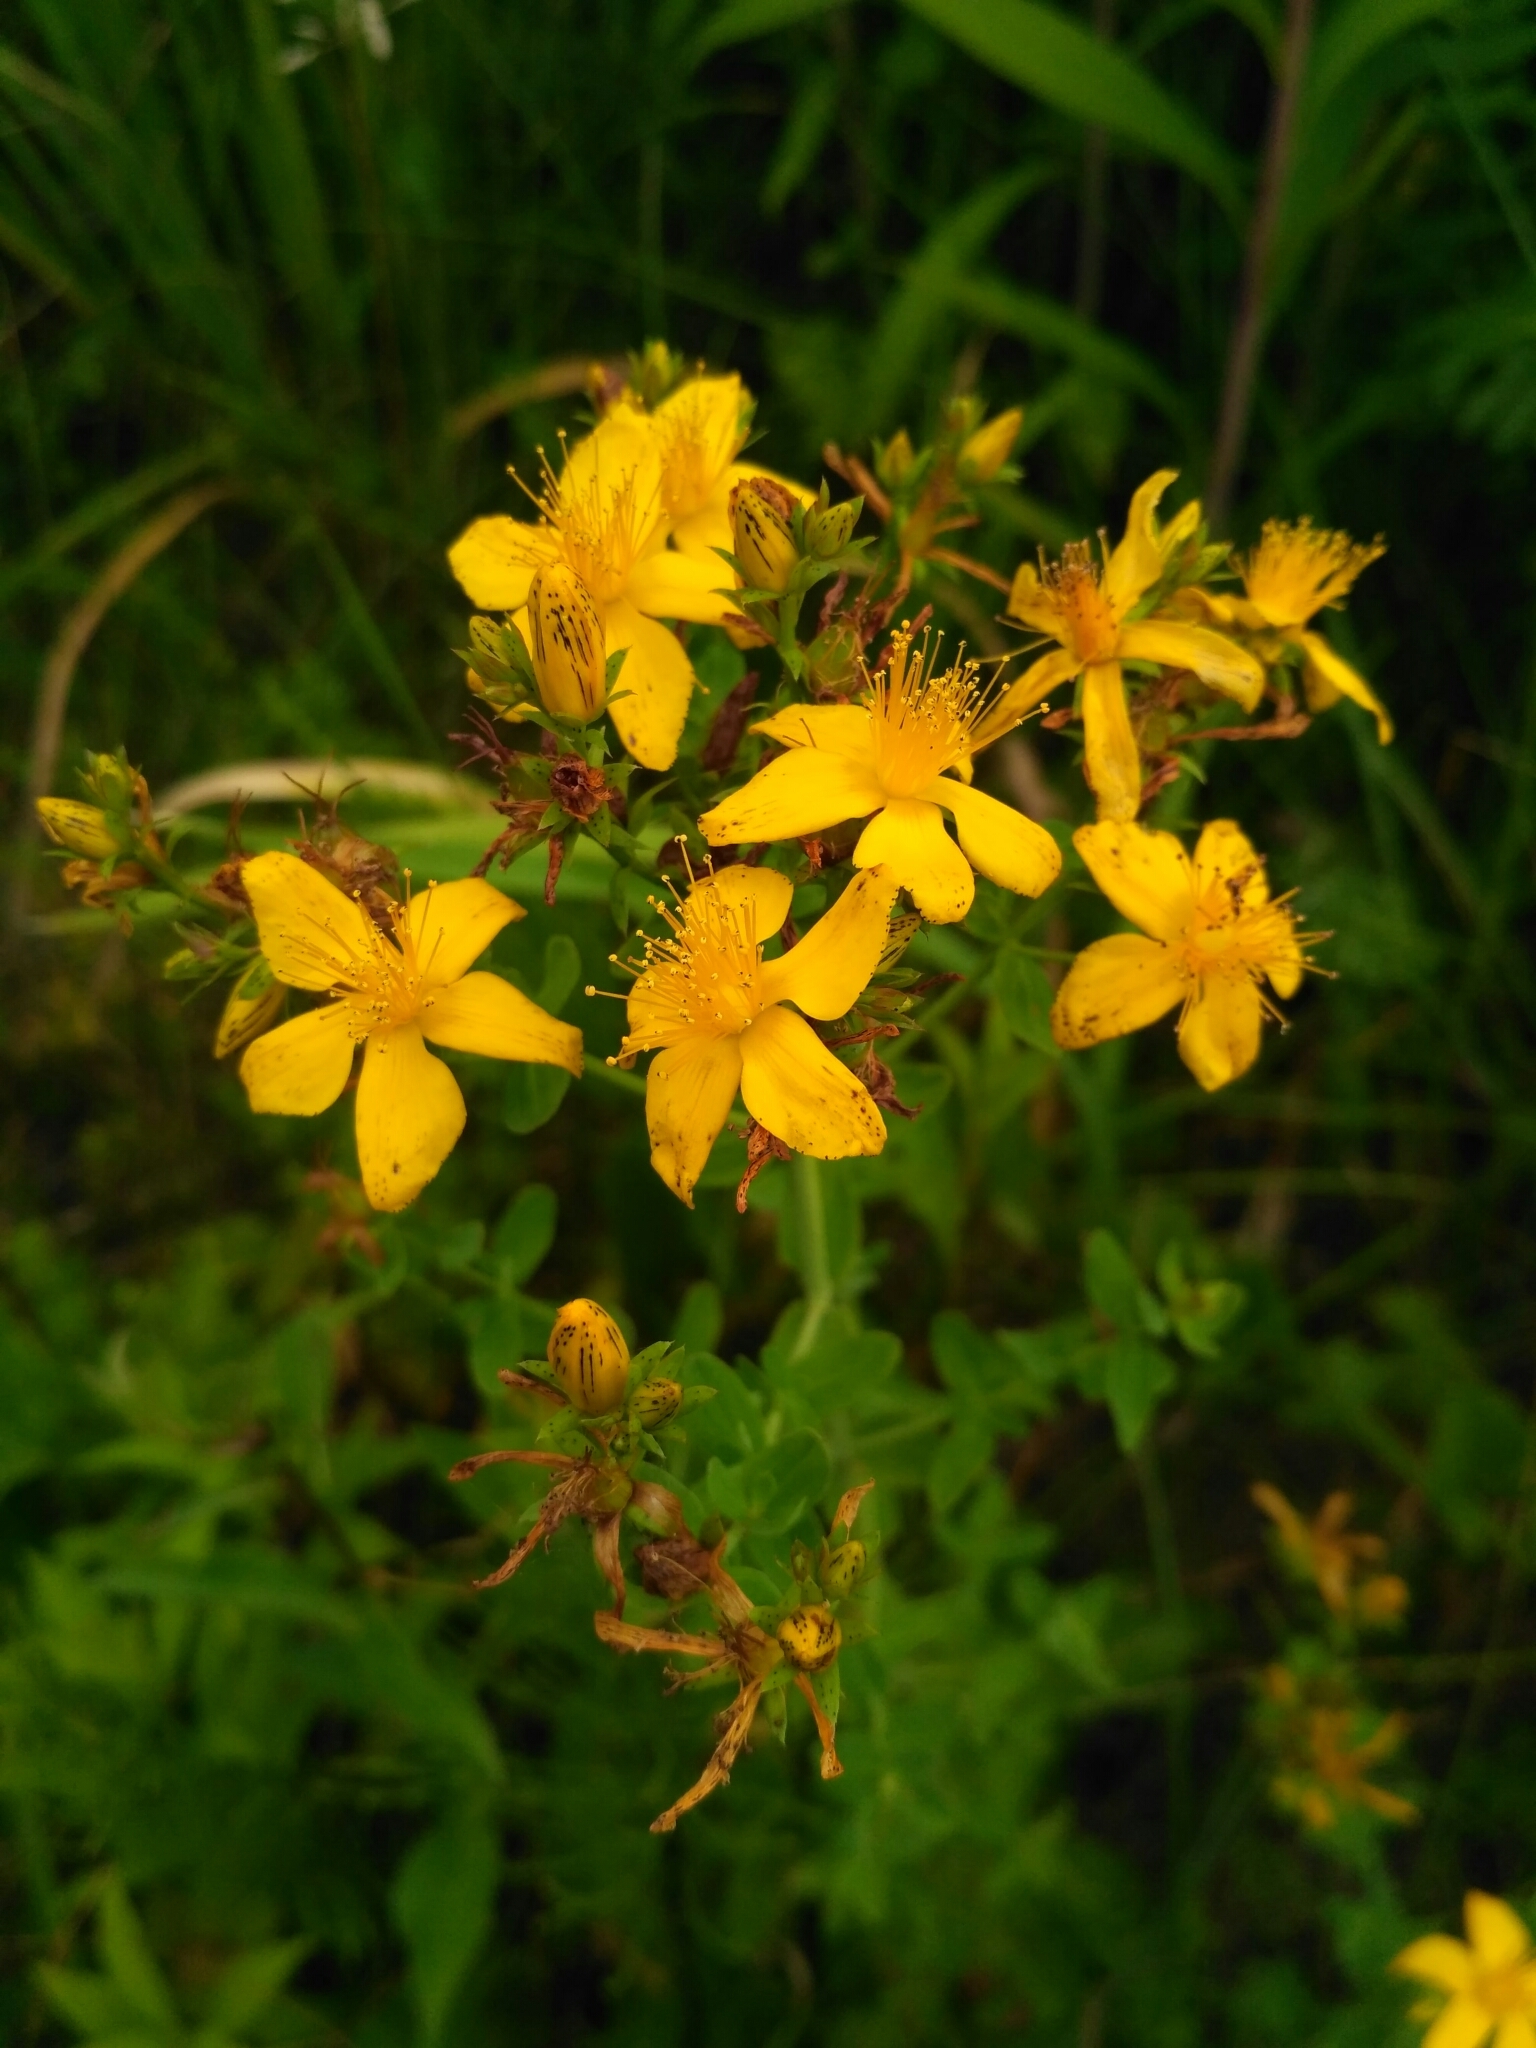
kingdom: Plantae
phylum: Tracheophyta
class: Magnoliopsida
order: Malpighiales
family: Hypericaceae
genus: Hypericum
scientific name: Hypericum perforatum
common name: Common st. johnswort
